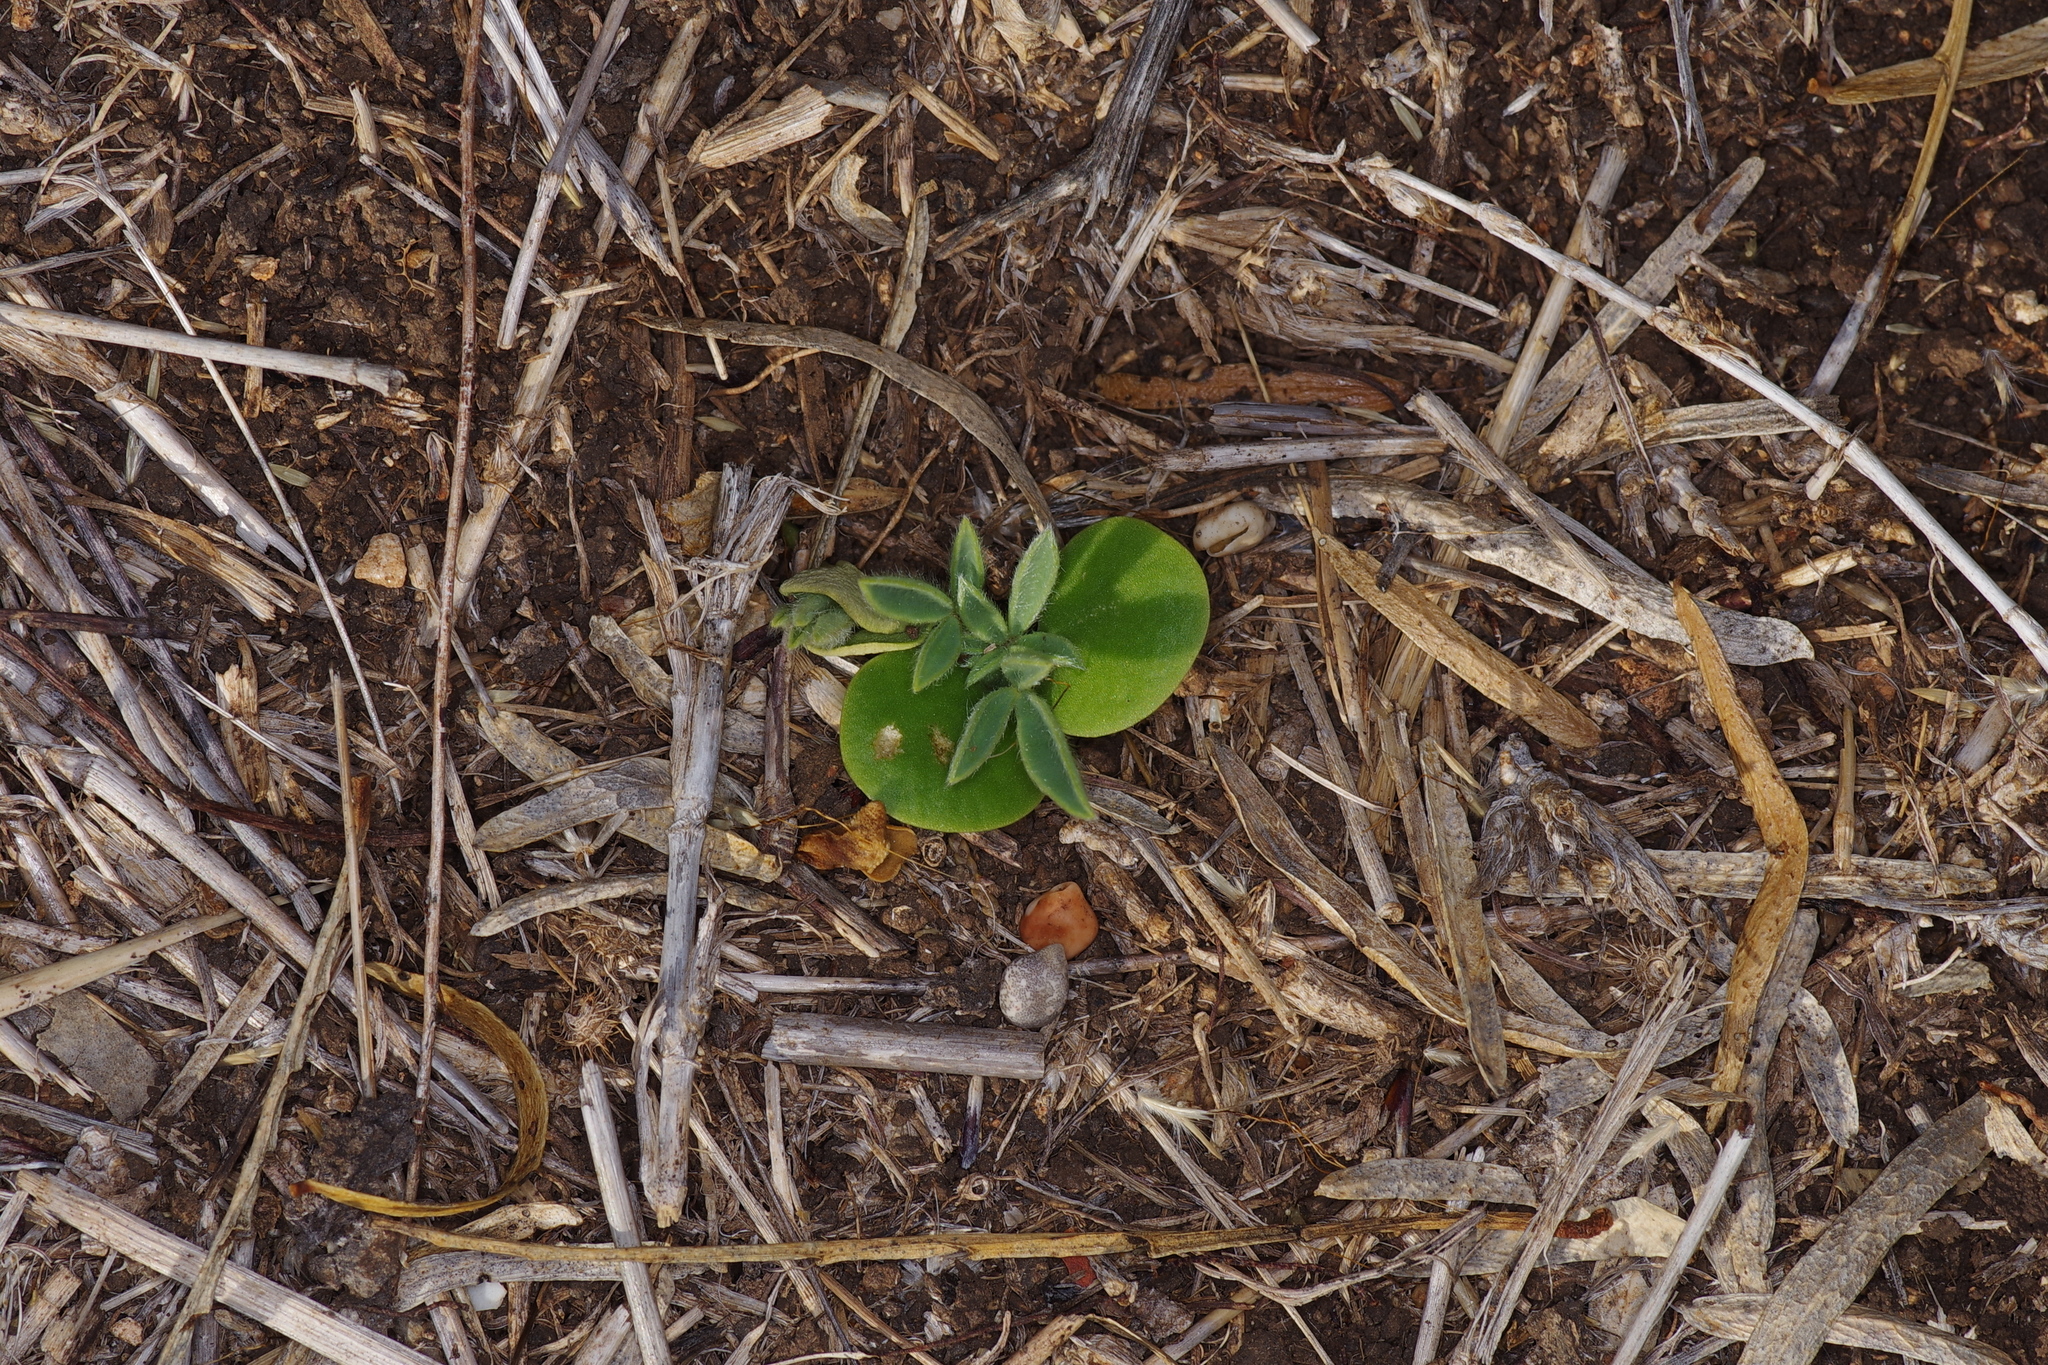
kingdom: Plantae
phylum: Tracheophyta
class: Magnoliopsida
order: Fabales
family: Fabaceae
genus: Lupinus
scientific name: Lupinus texensis
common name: Texas bluebonnet
